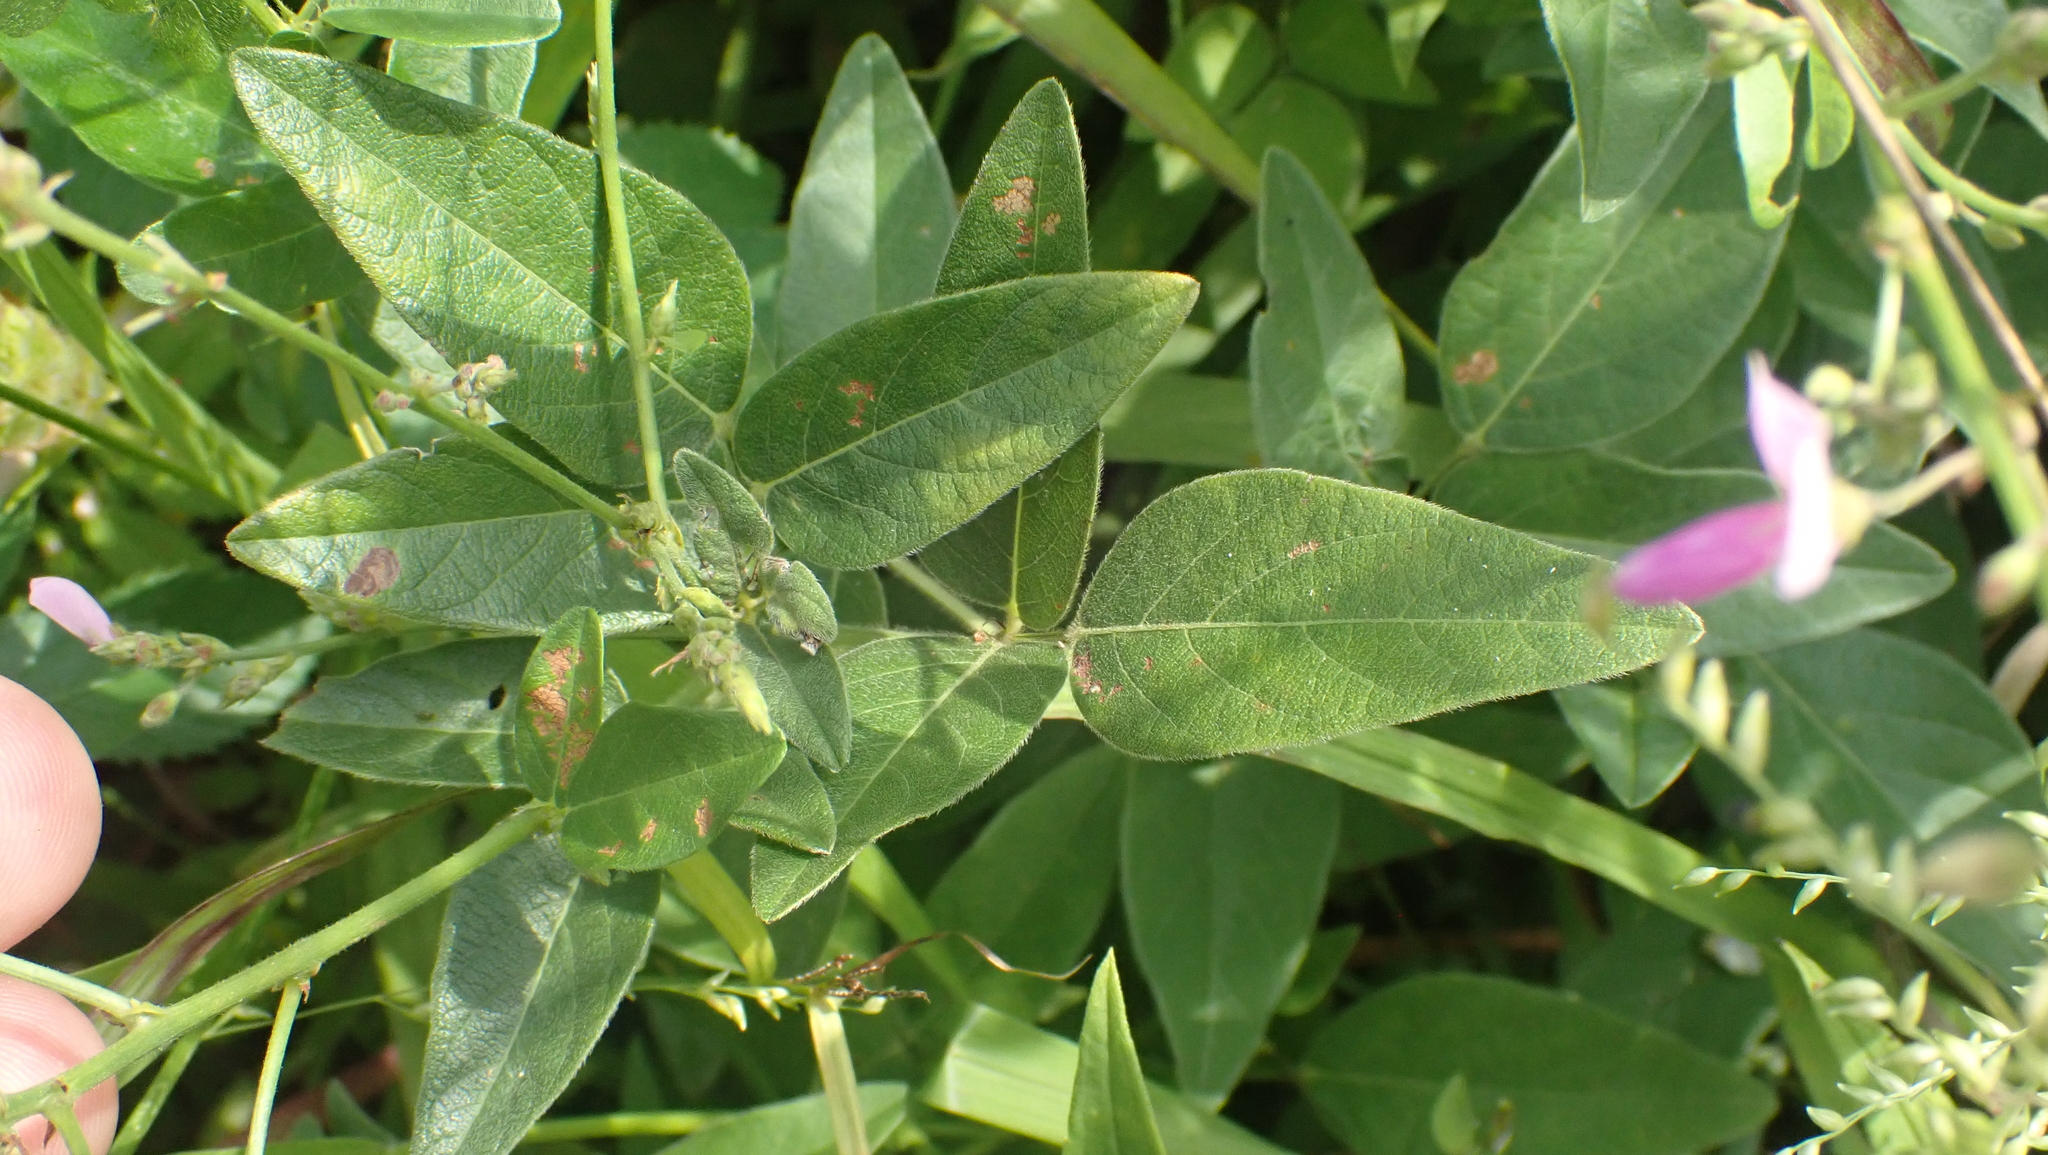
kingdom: Plantae
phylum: Tracheophyta
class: Magnoliopsida
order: Fabales
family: Fabaceae
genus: Desmodium
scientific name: Desmodium glabellum
